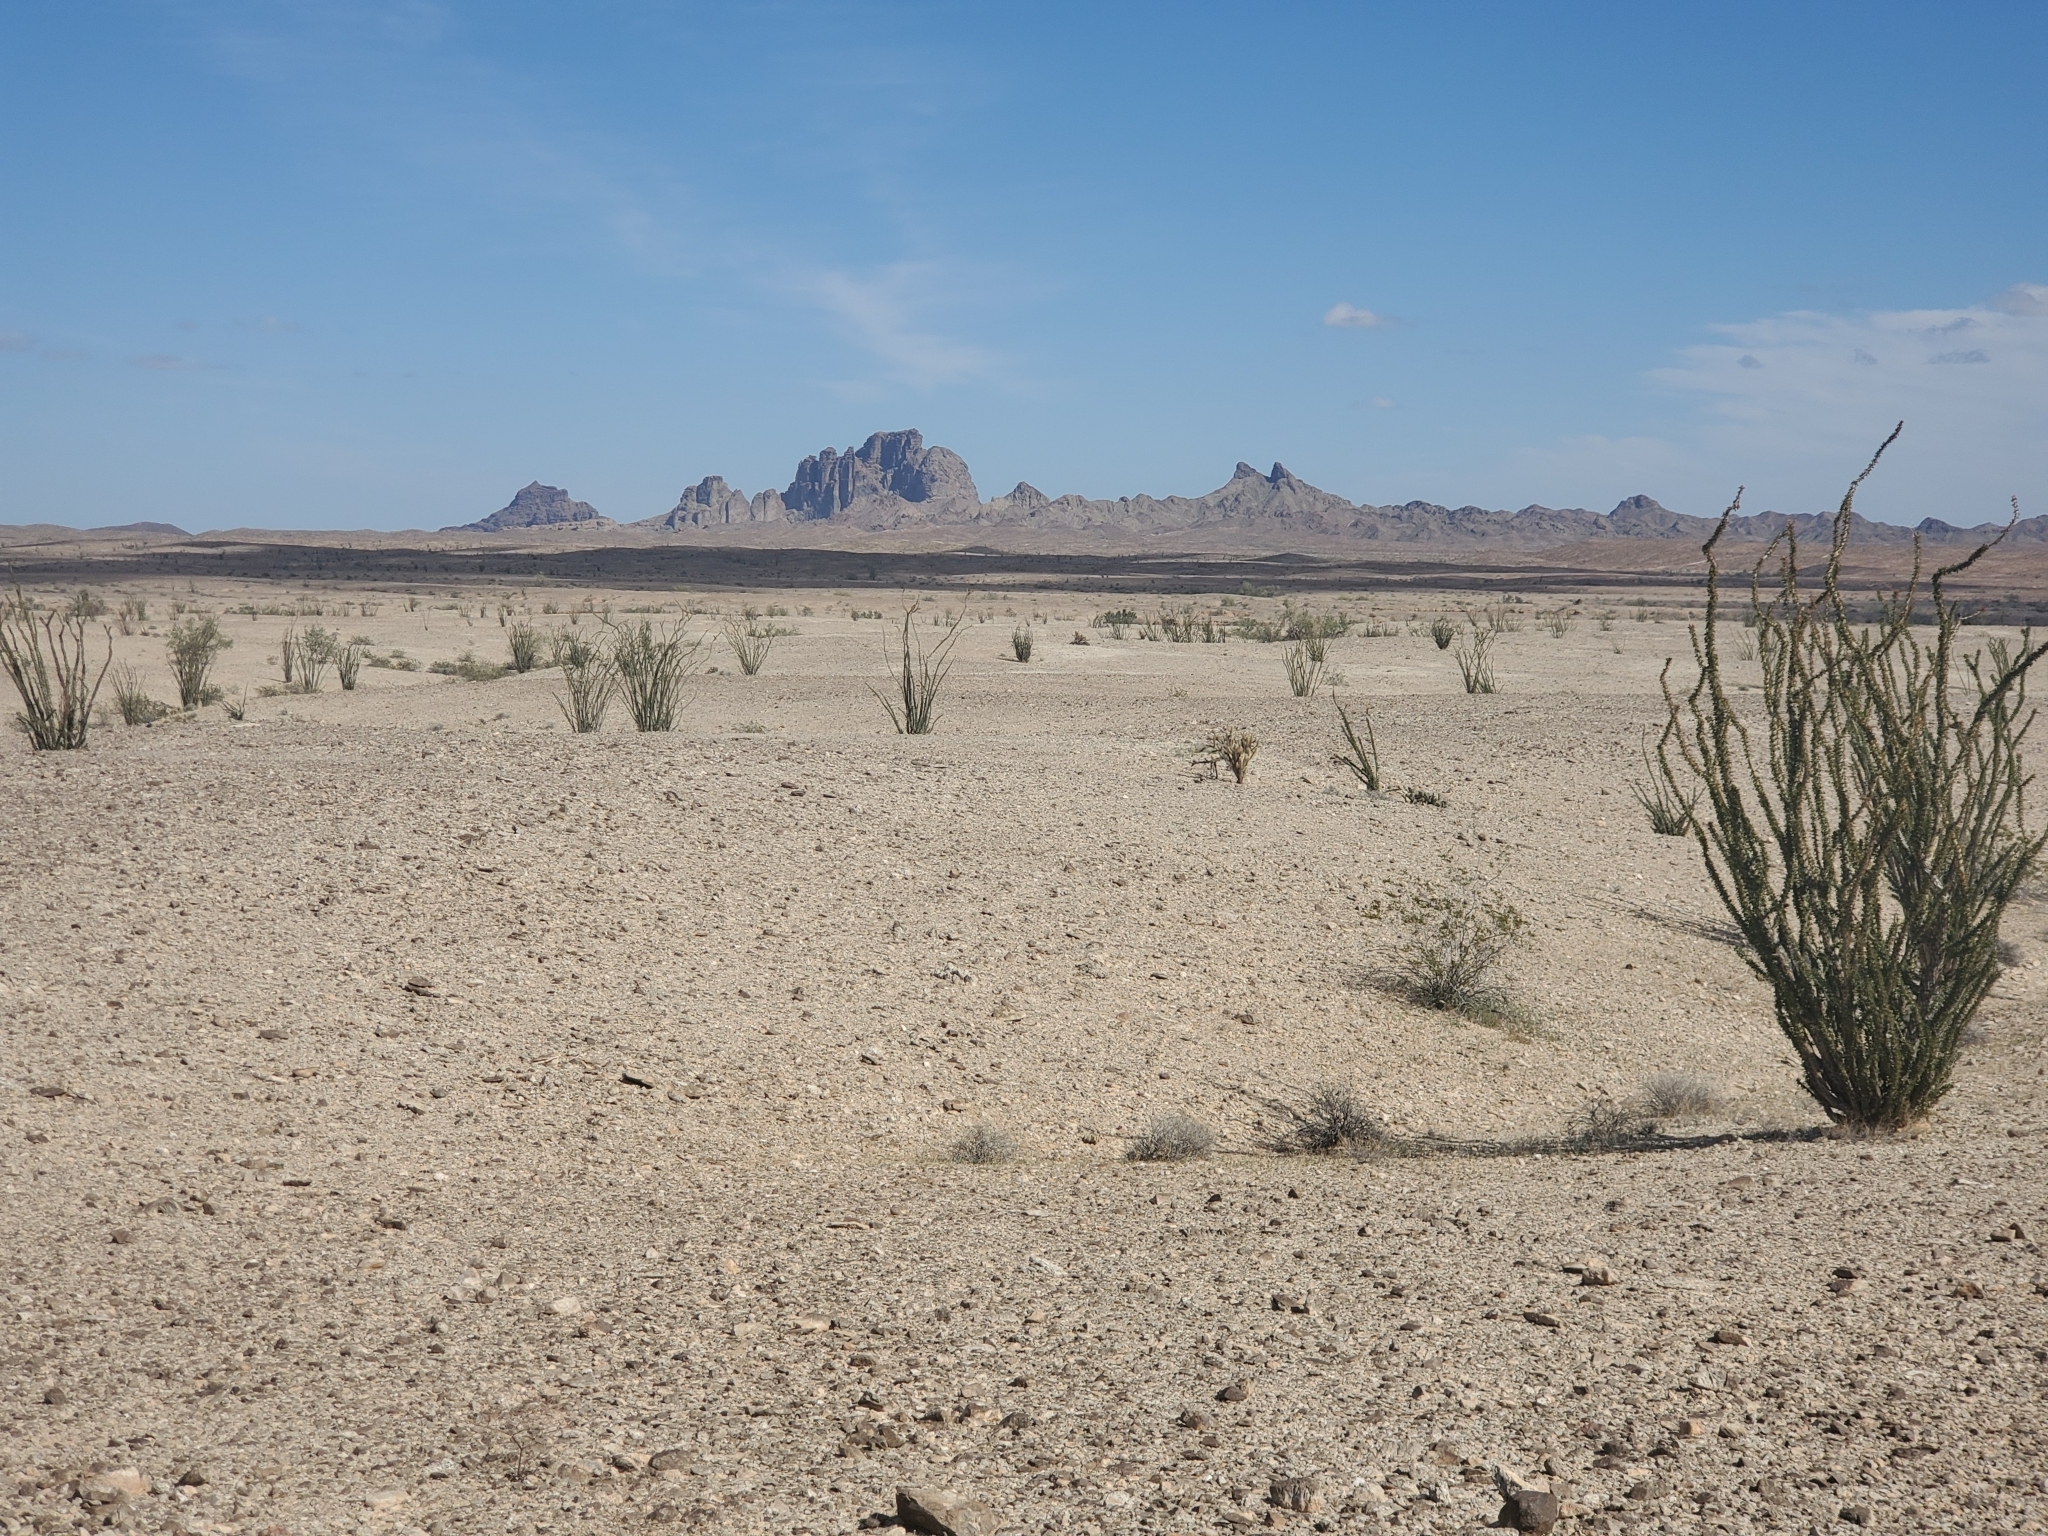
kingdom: Plantae
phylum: Tracheophyta
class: Magnoliopsida
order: Ericales
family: Fouquieriaceae
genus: Fouquieria
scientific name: Fouquieria splendens
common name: Vine-cactus
